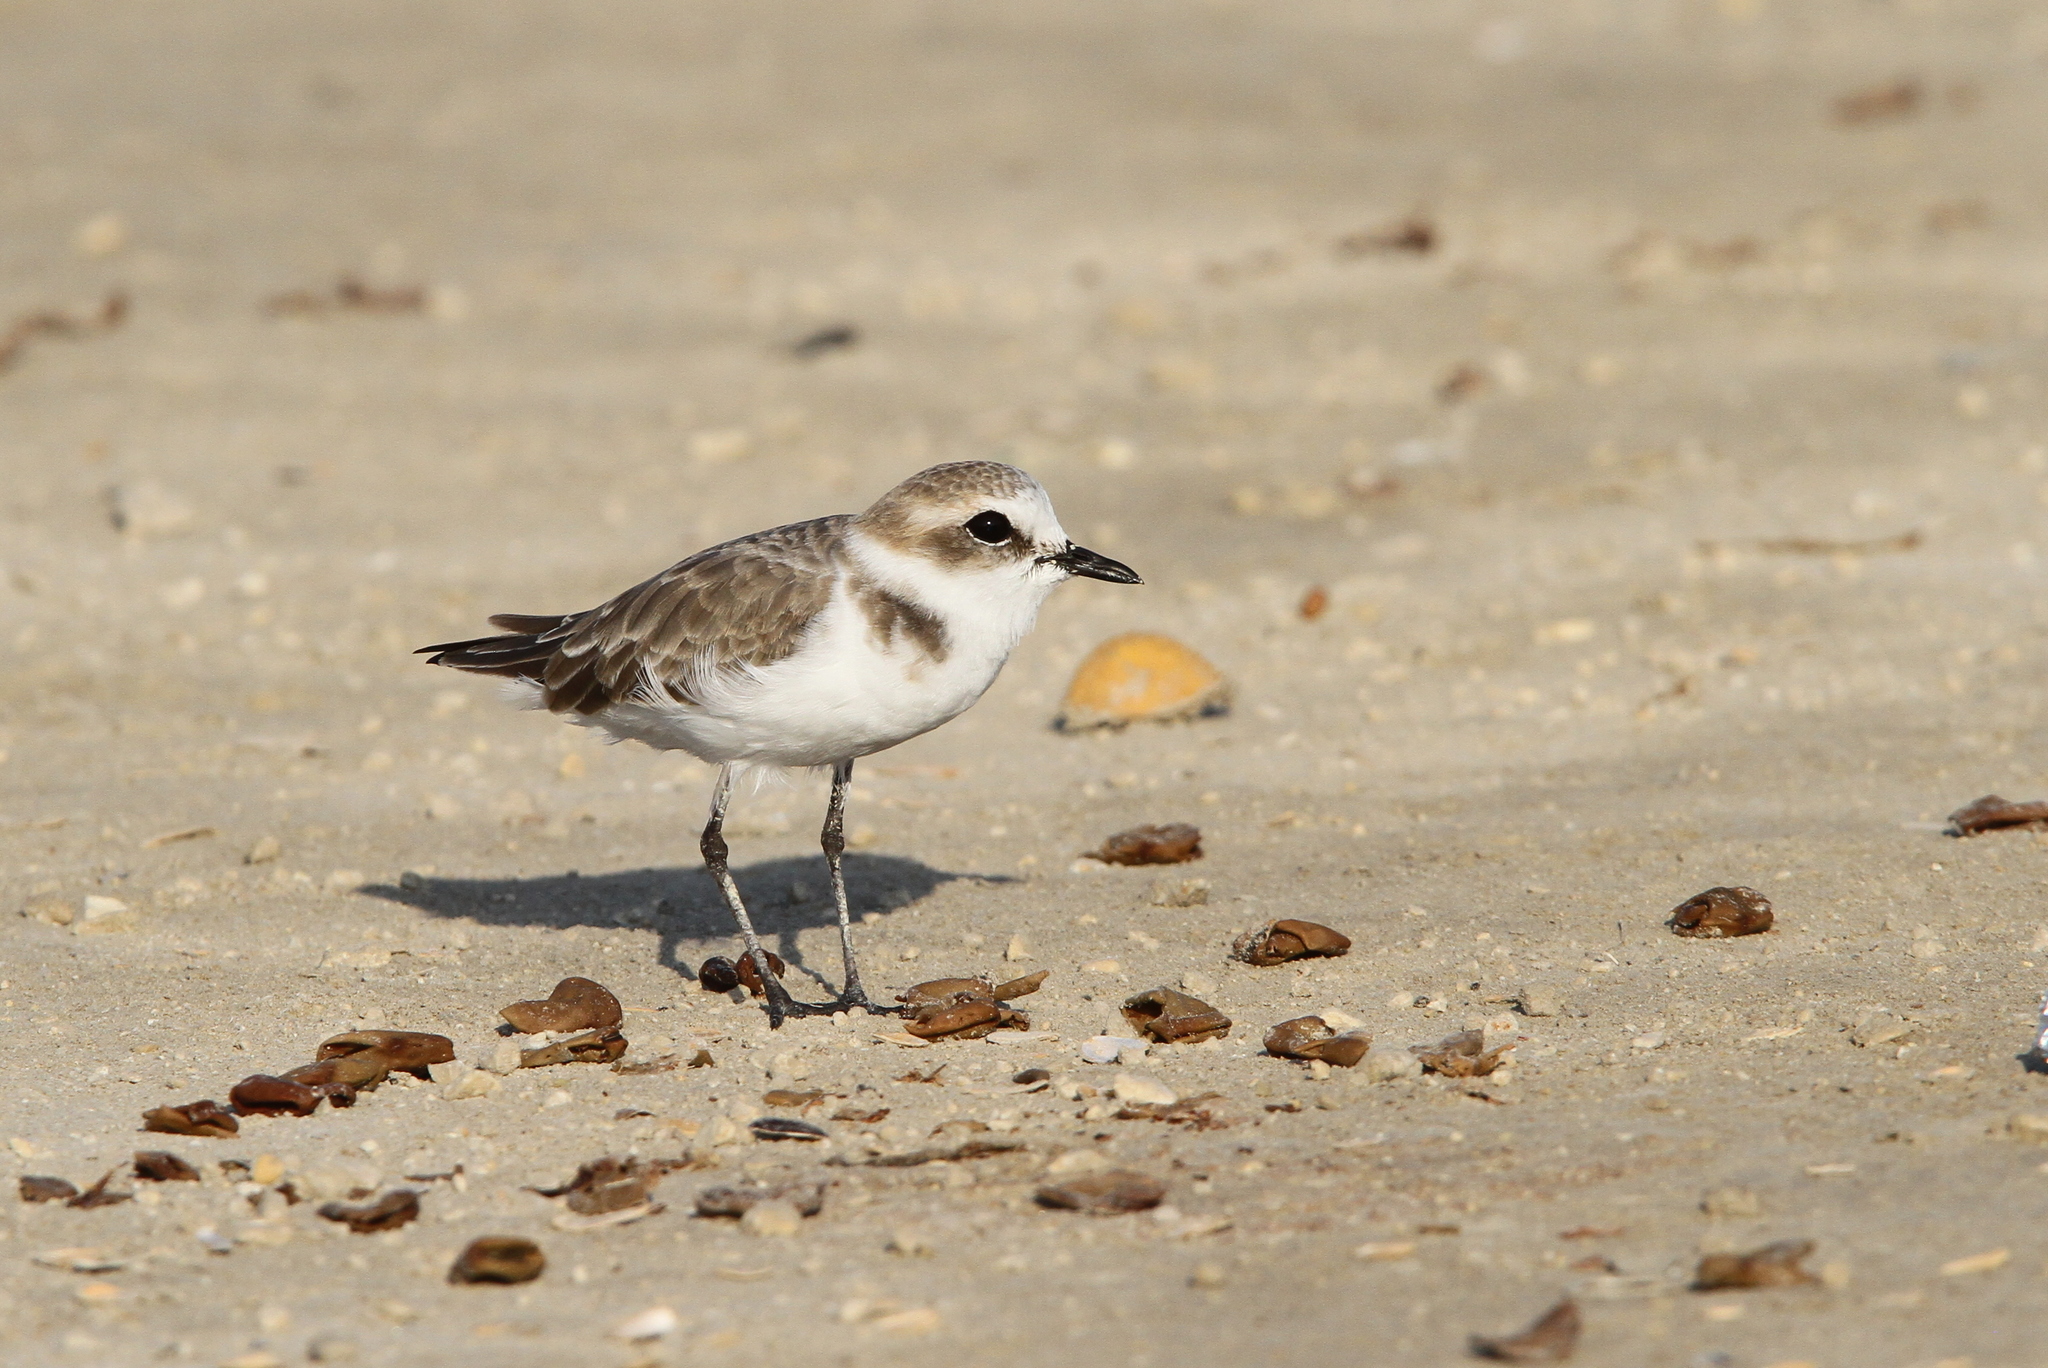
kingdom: Animalia
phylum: Chordata
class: Aves
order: Charadriiformes
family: Charadriidae
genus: Charadrius
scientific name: Charadrius alexandrinus
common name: Kentish plover
